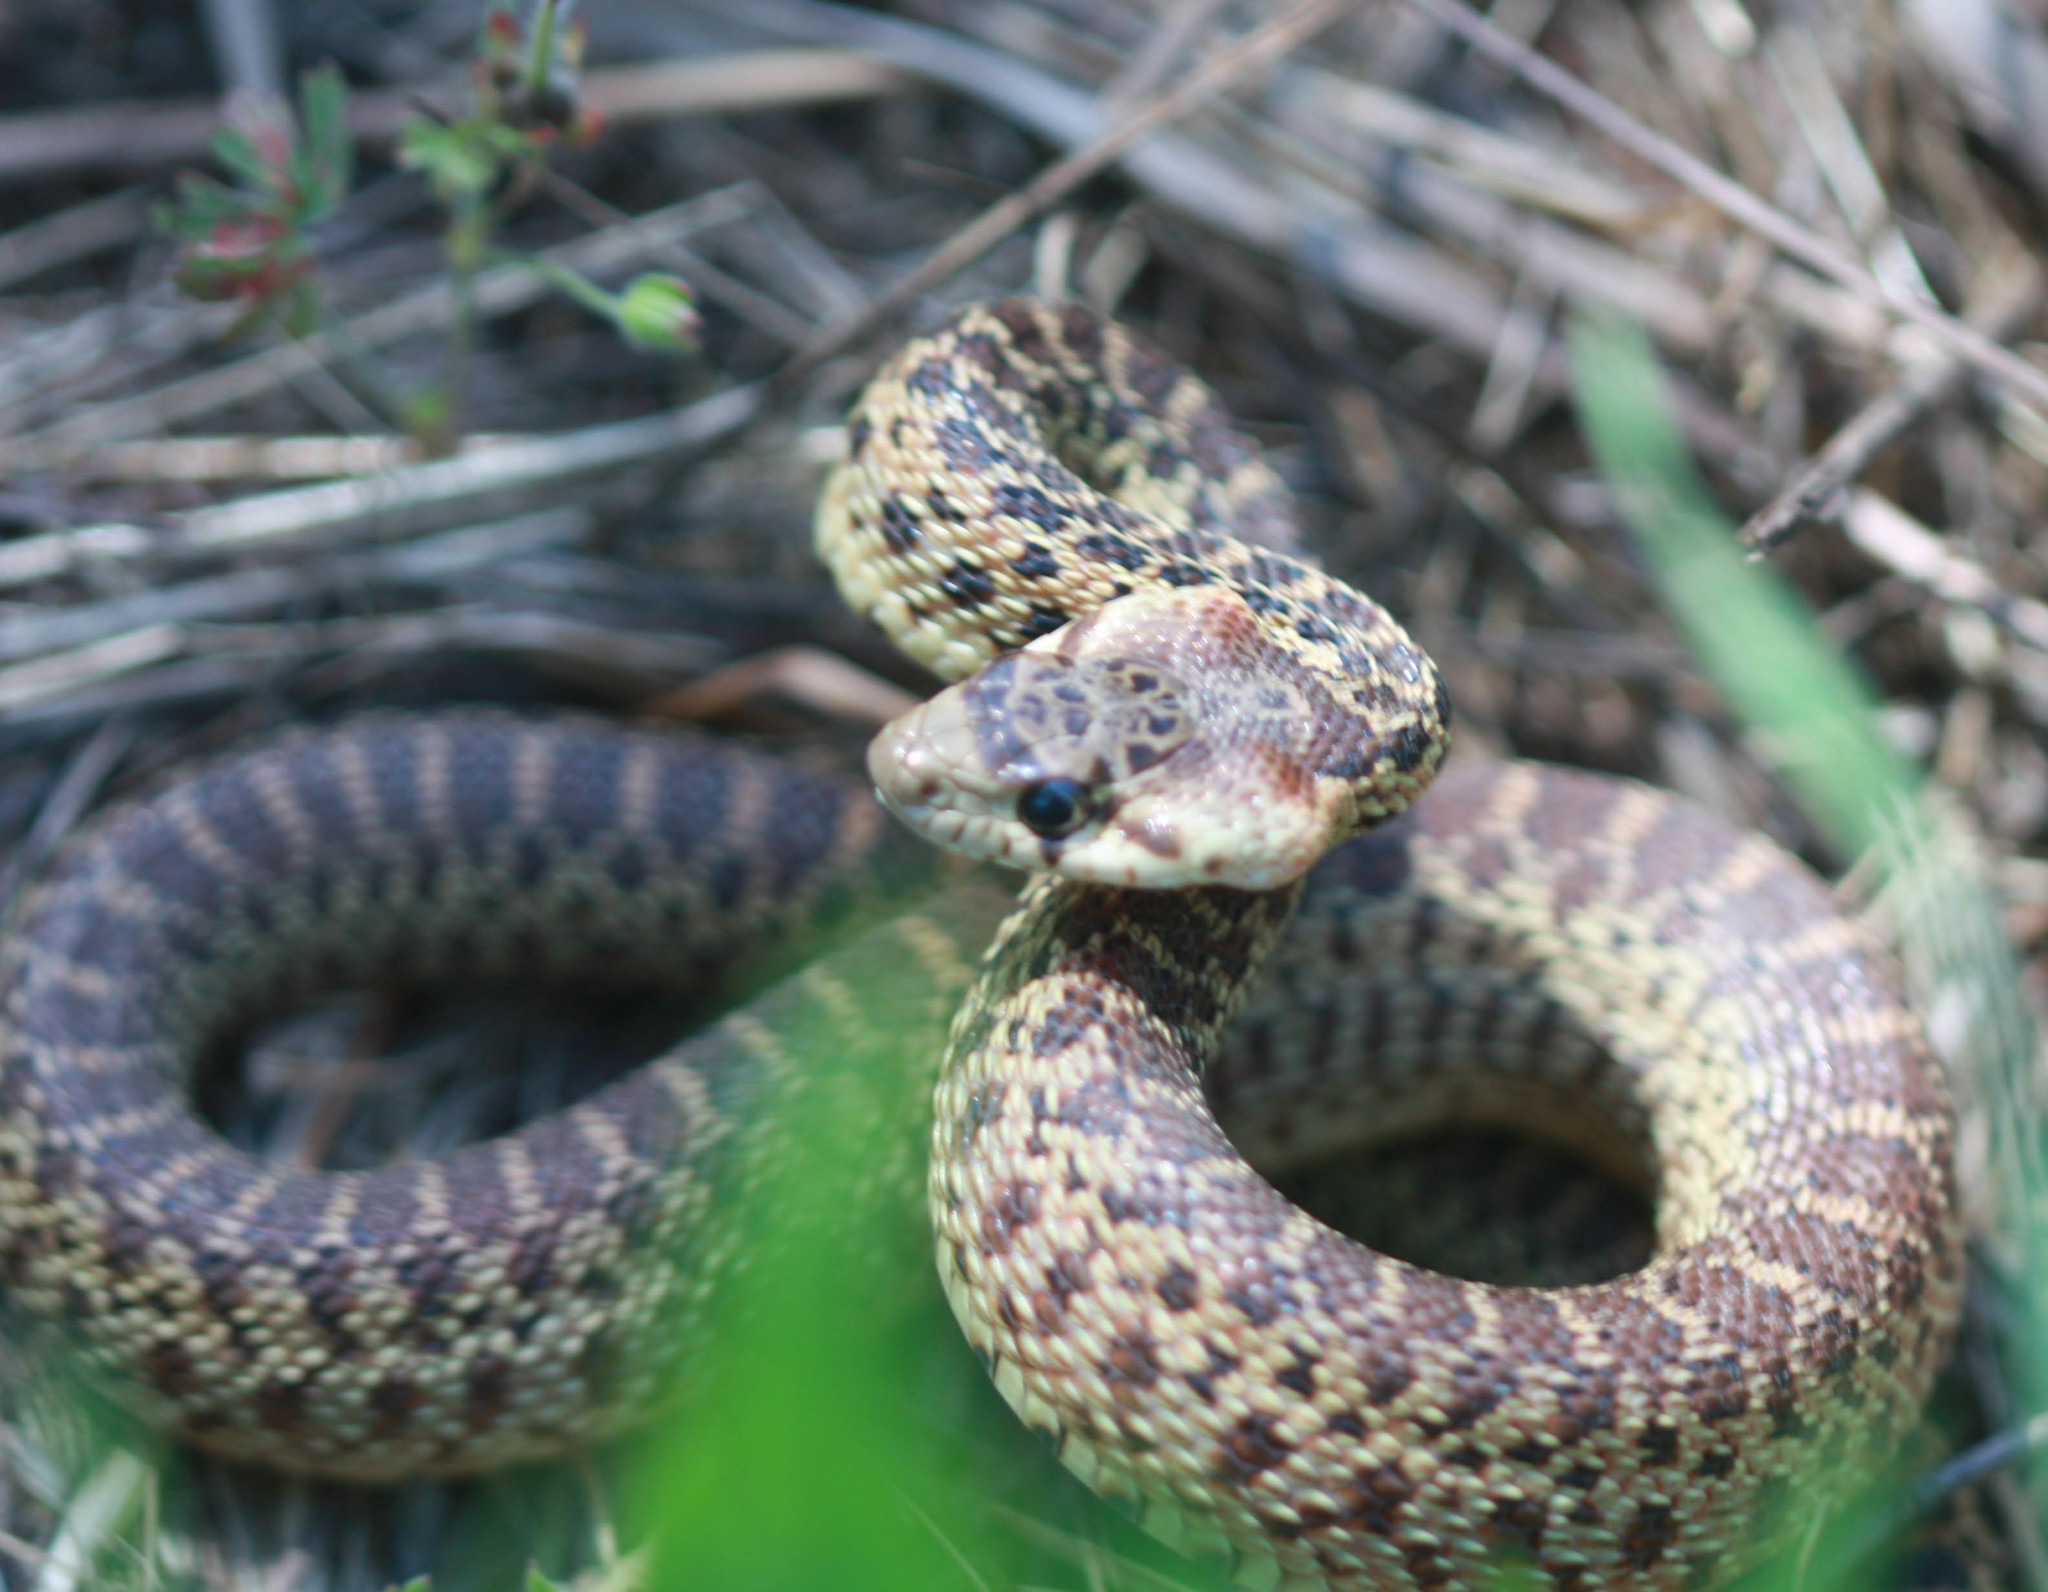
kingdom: Animalia
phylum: Chordata
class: Squamata
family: Colubridae
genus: Pituophis
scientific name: Pituophis catenifer
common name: Gopher snake
